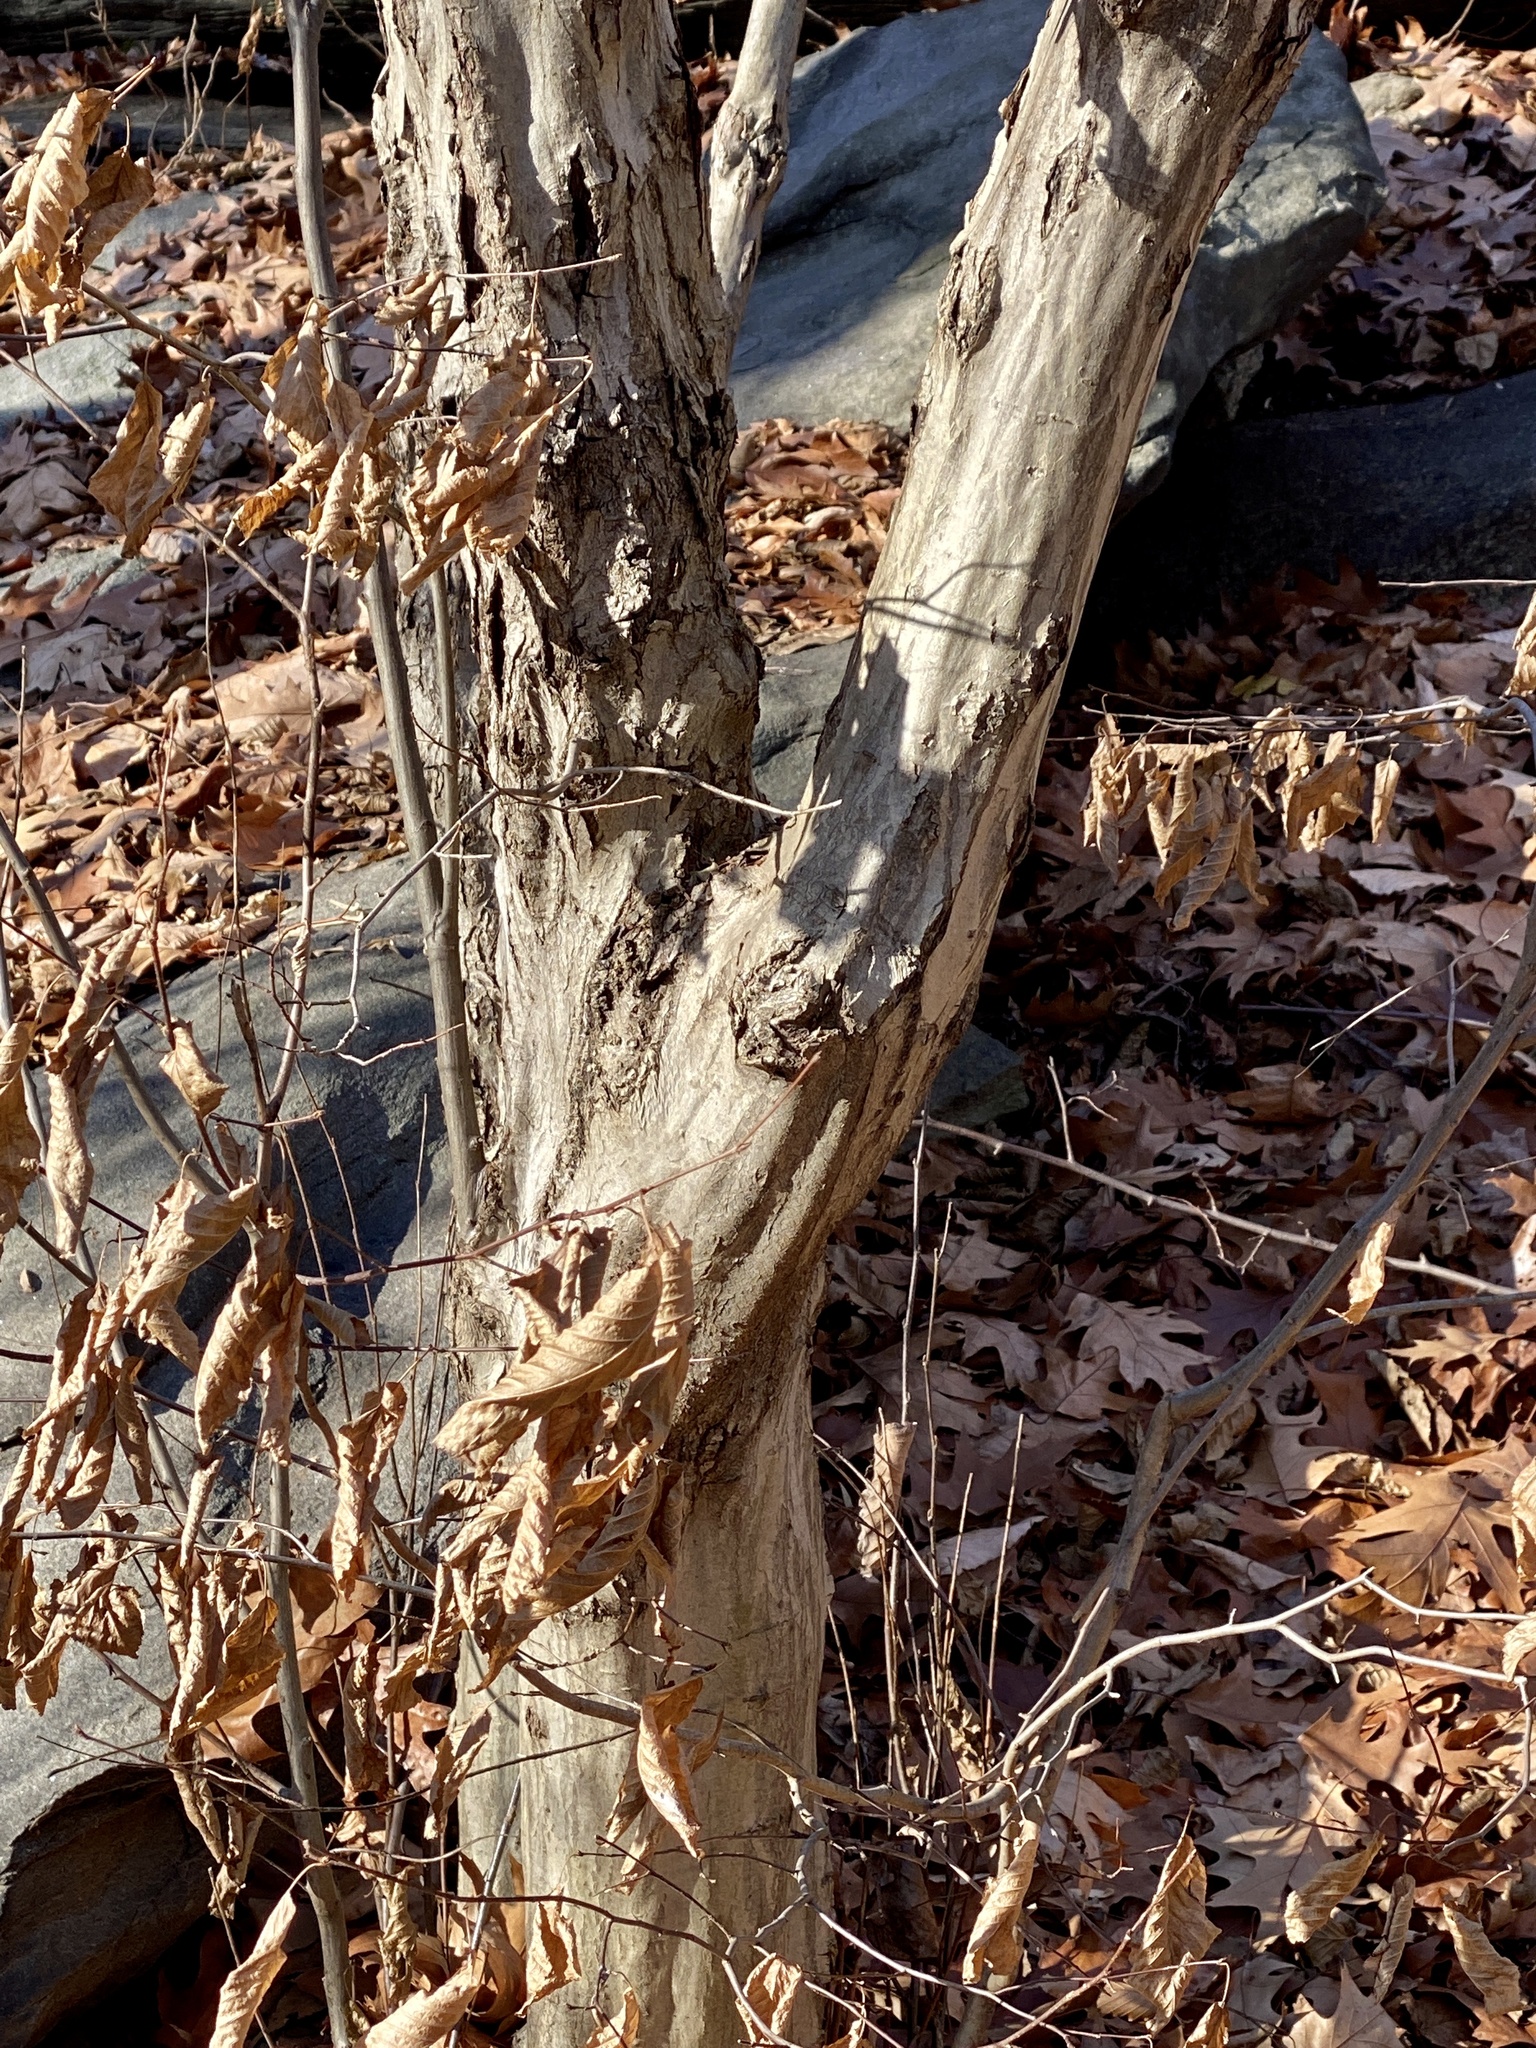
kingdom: Plantae
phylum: Tracheophyta
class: Magnoliopsida
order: Fagales
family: Betulaceae
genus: Carpinus
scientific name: Carpinus caroliniana
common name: American hornbeam
